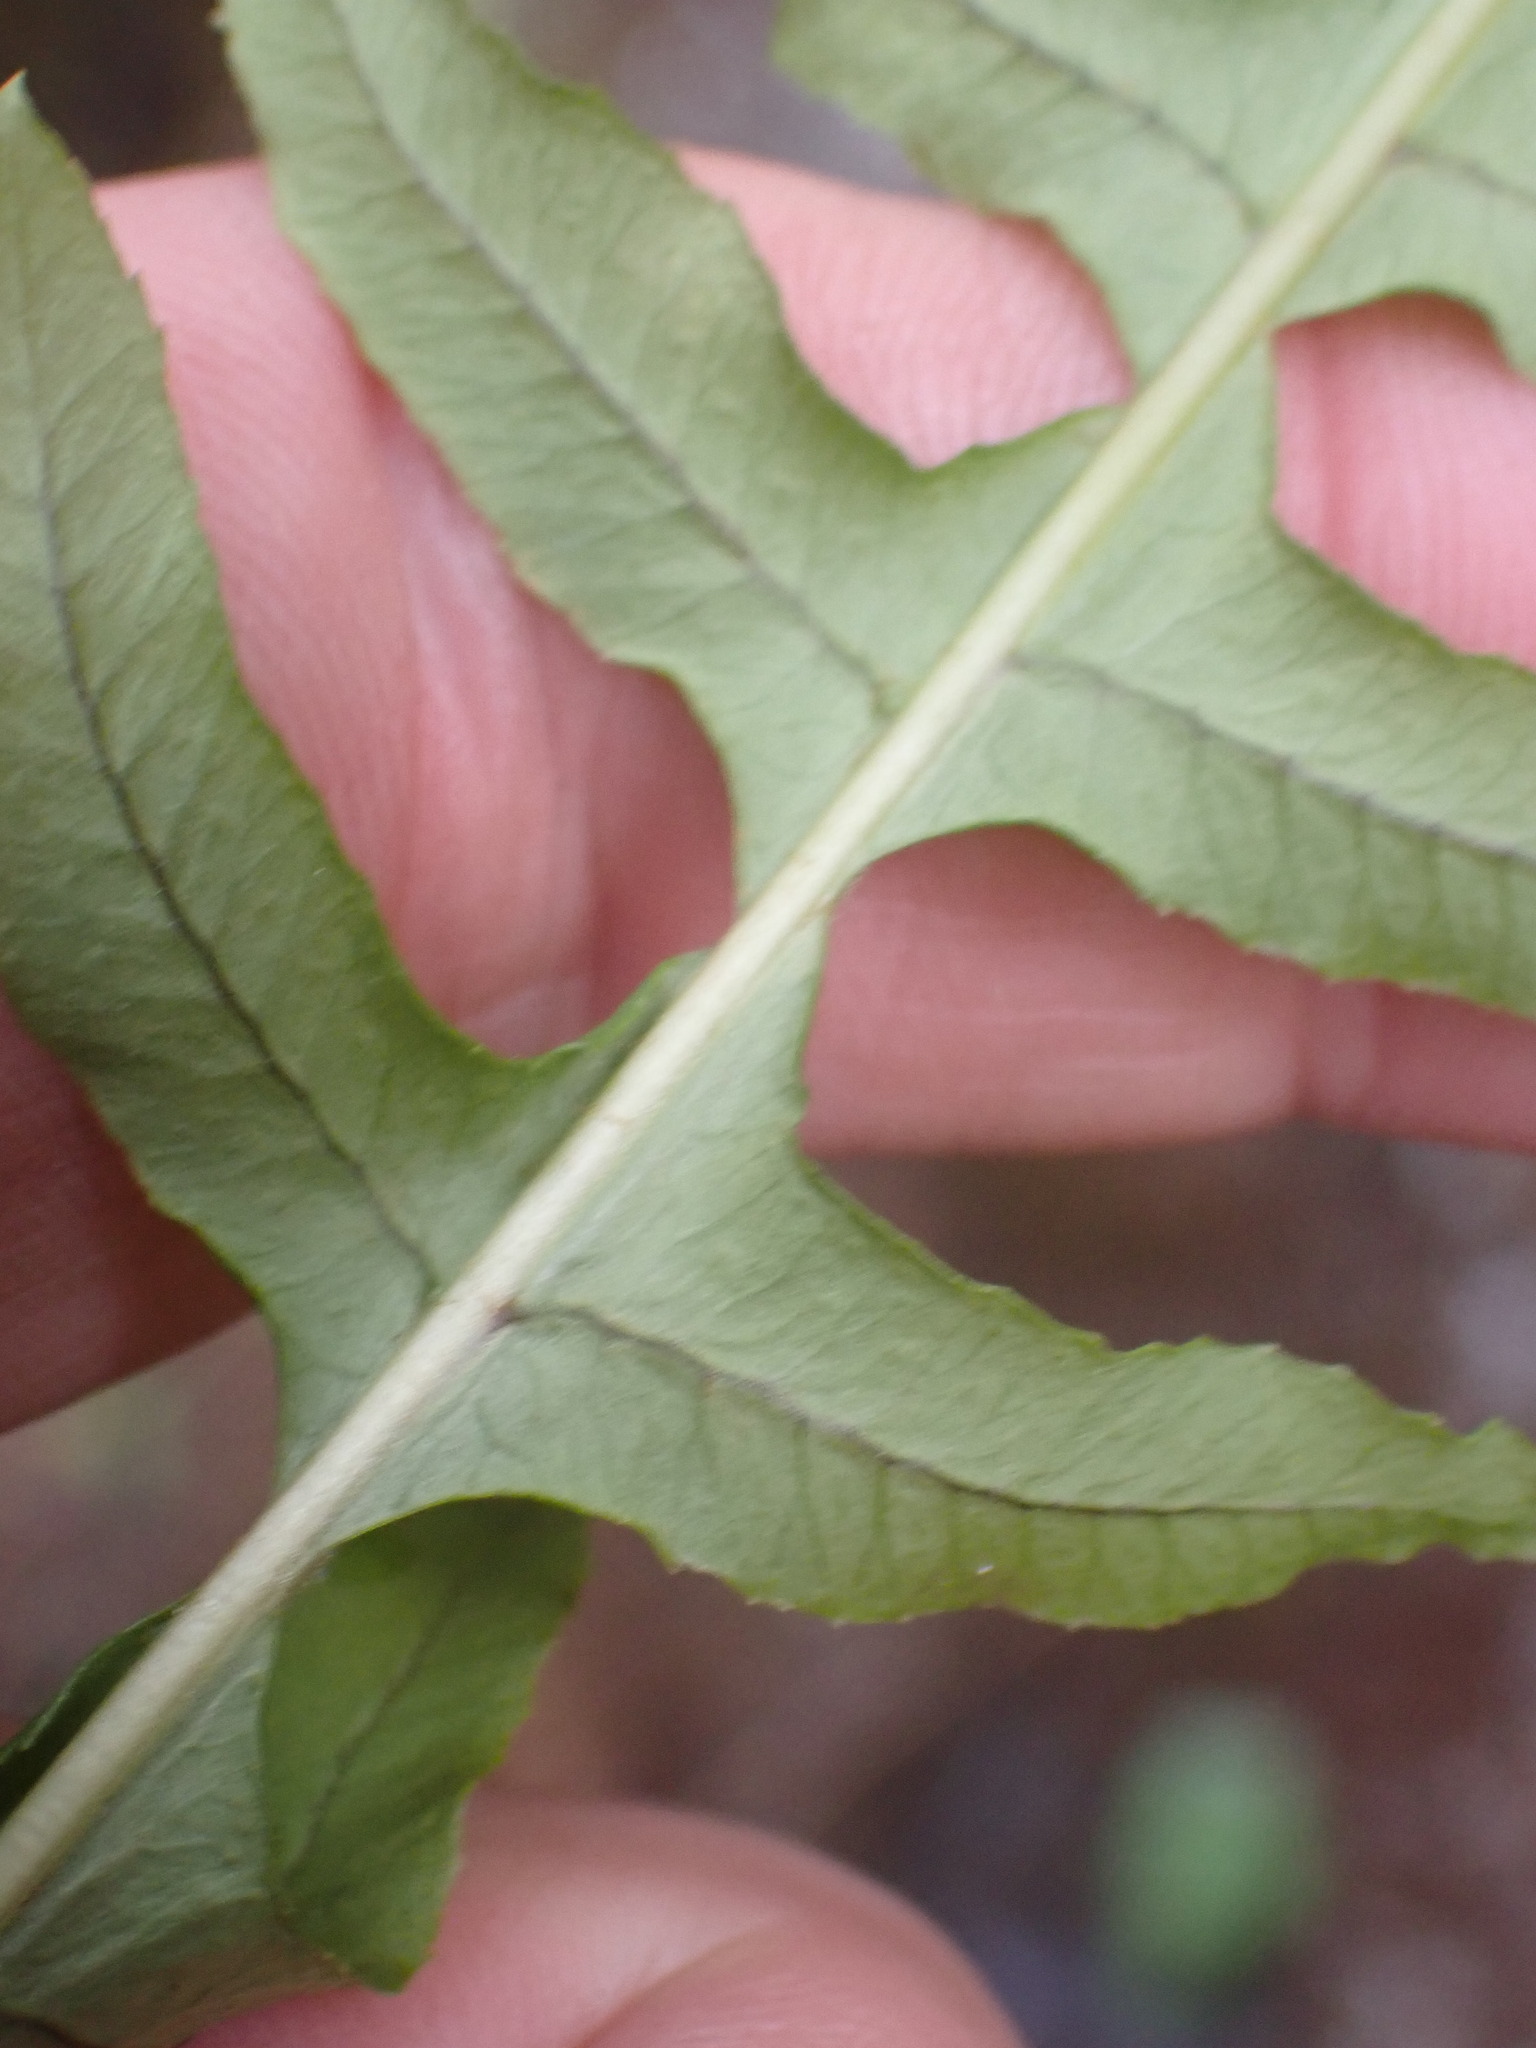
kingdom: Plantae
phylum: Tracheophyta
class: Polypodiopsida
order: Polypodiales
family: Polypodiaceae
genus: Polypodium
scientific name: Polypodium glycyrrhiza
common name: Licorice fern
